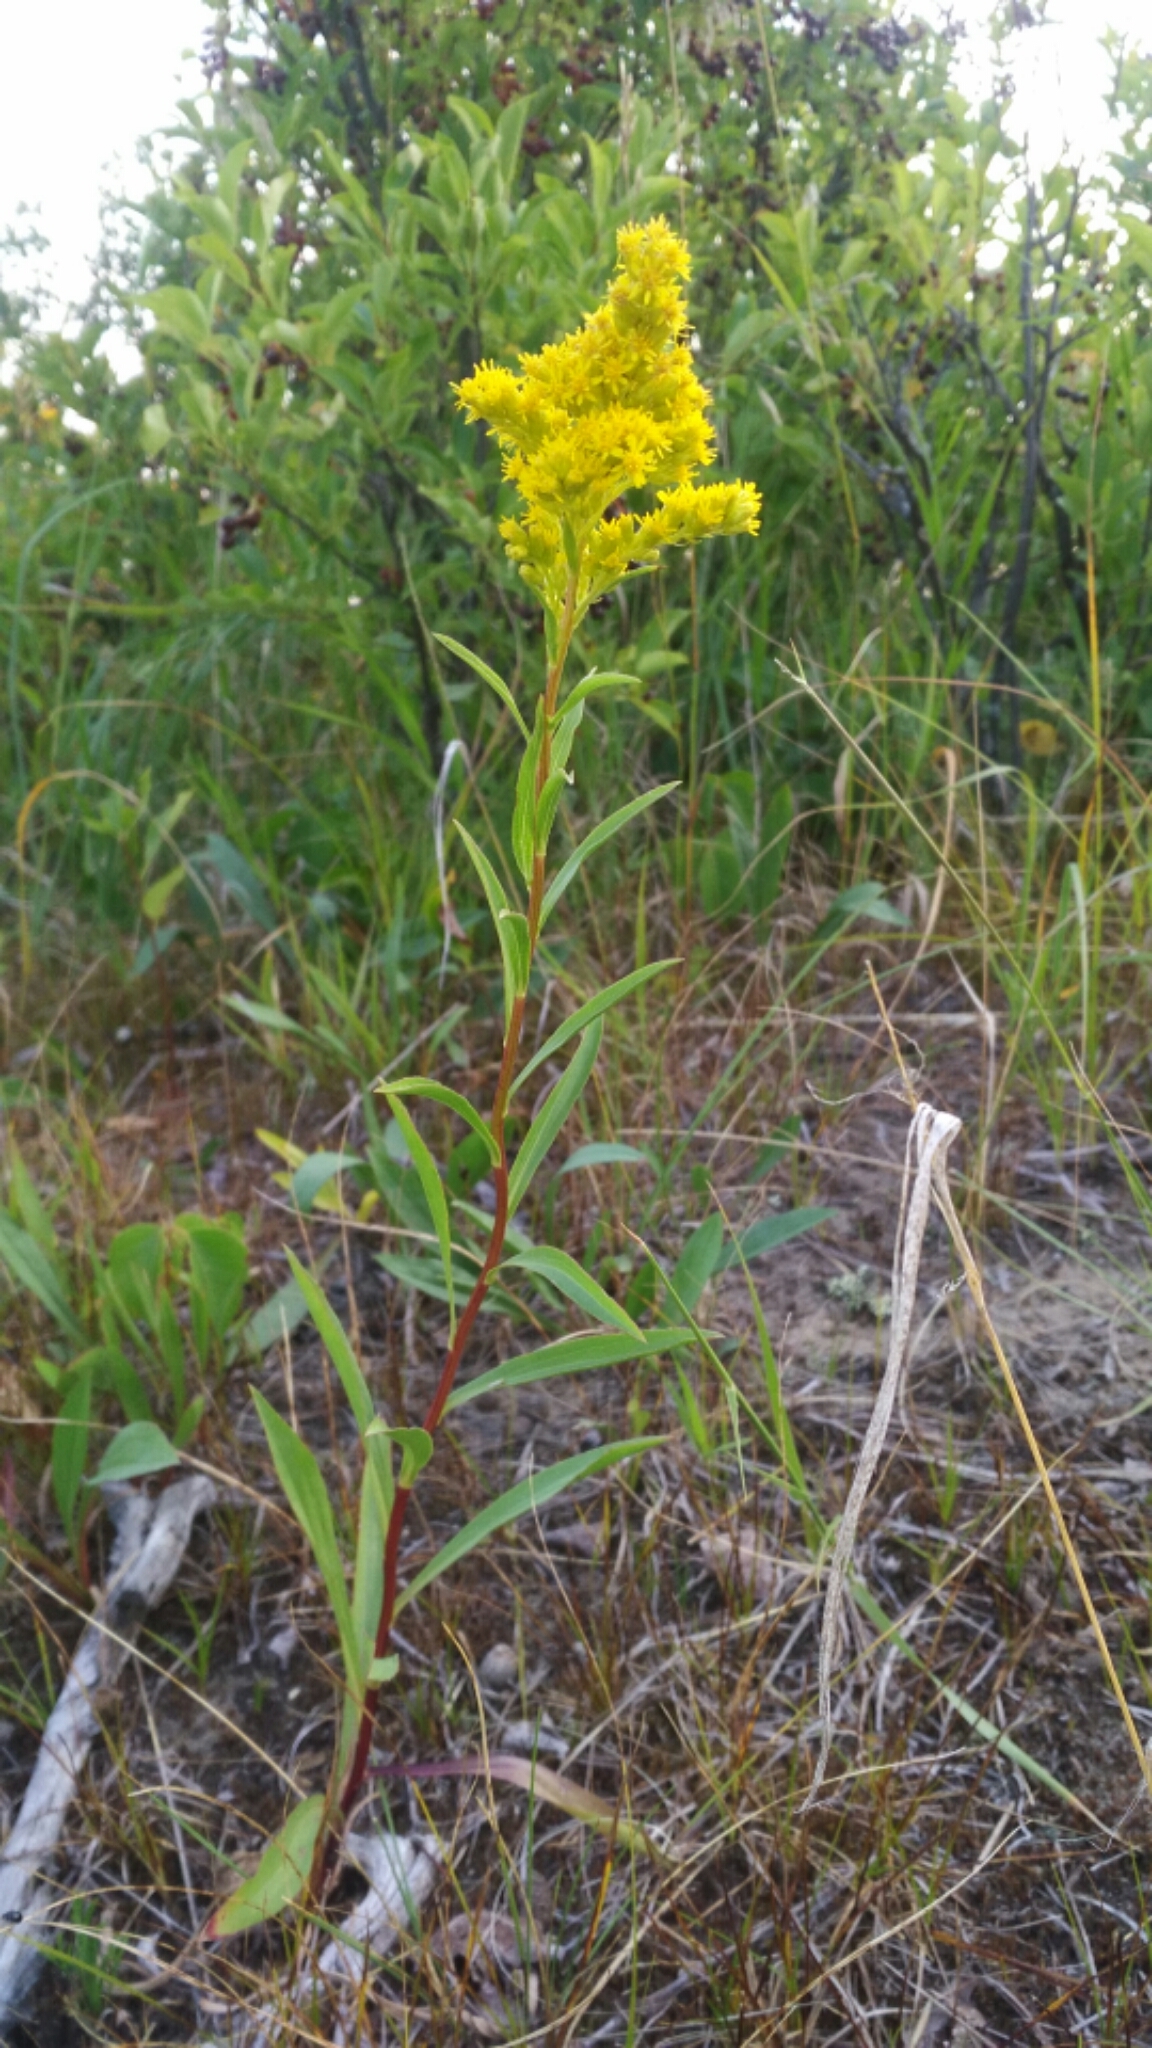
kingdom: Plantae
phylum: Tracheophyta
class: Magnoliopsida
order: Asterales
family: Asteraceae
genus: Solidago
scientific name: Solidago missouriensis
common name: Prairie goldenrod
